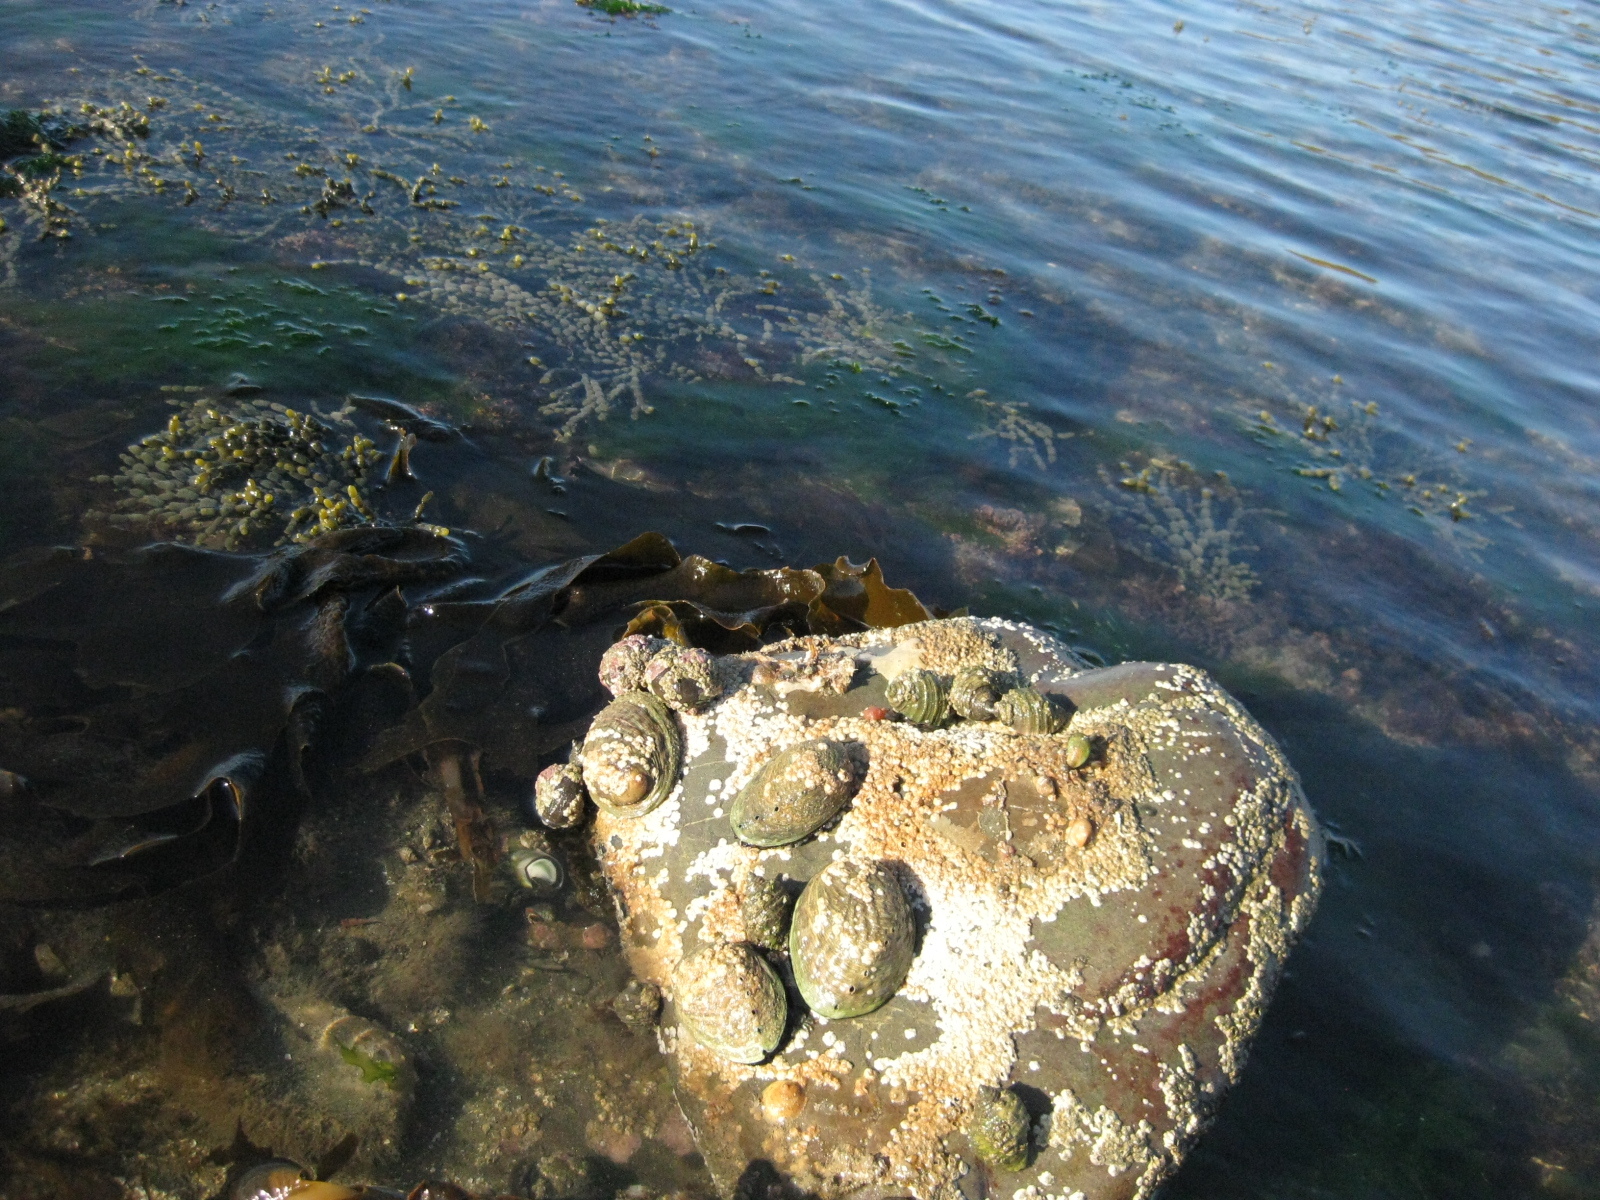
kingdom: Animalia
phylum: Mollusca
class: Gastropoda
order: Lepetellida
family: Haliotidae
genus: Haliotis
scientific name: Haliotis iris
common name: Abalone
